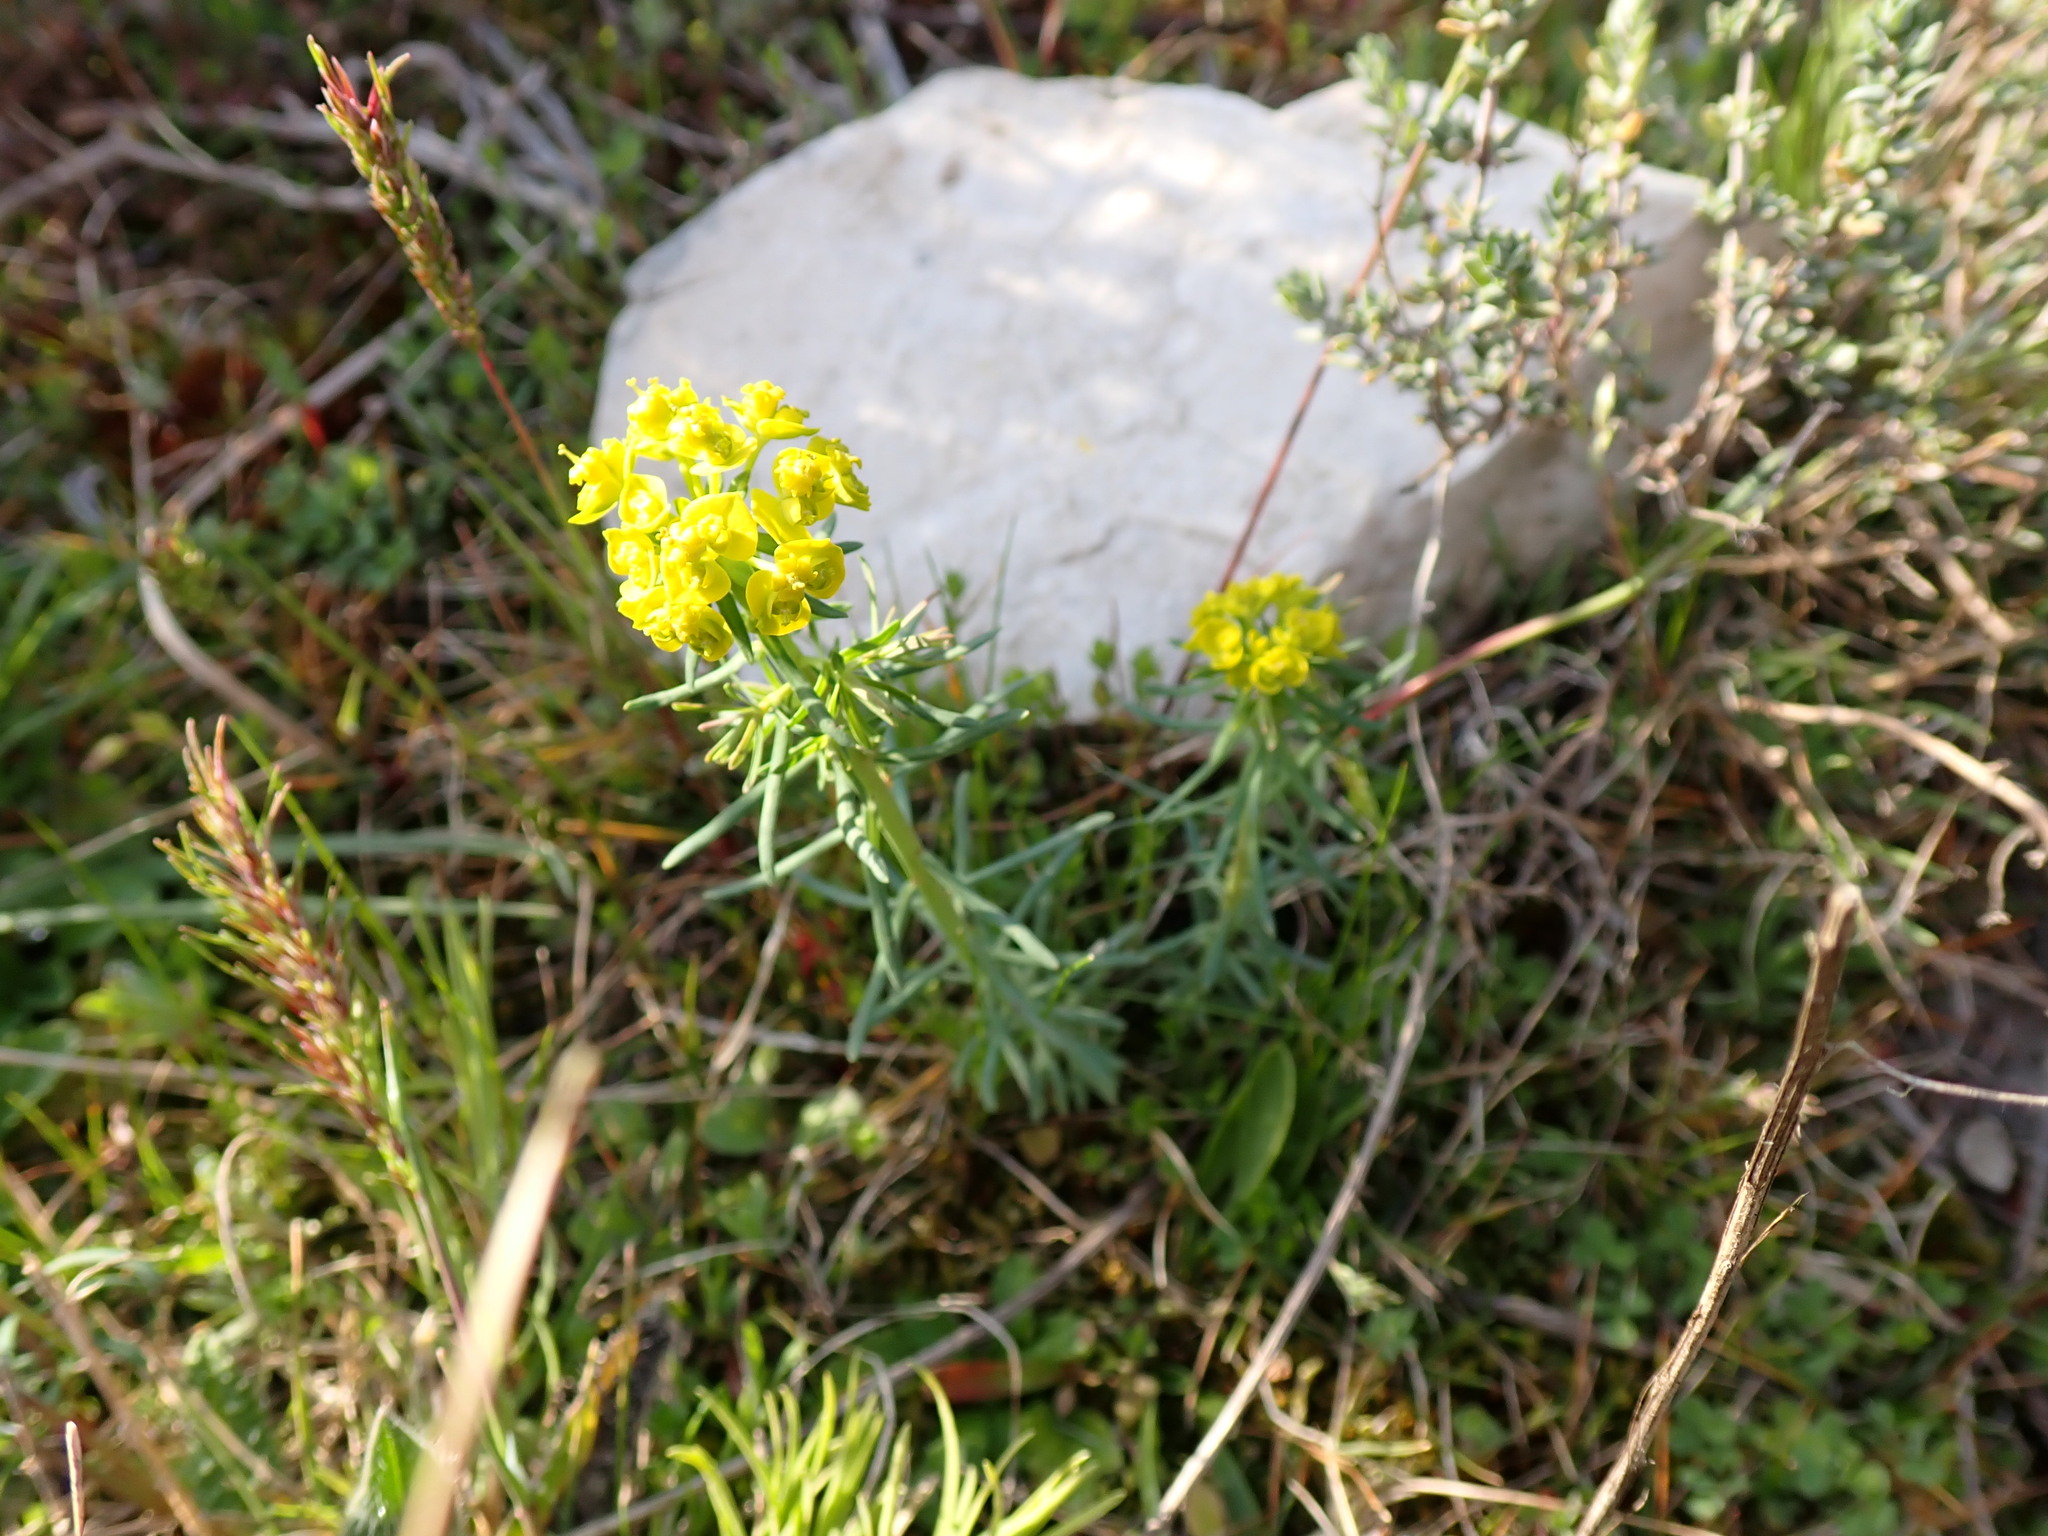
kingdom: Plantae
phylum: Tracheophyta
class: Magnoliopsida
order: Malpighiales
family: Euphorbiaceae
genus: Euphorbia
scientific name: Euphorbia cyparissias
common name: Cypress spurge
